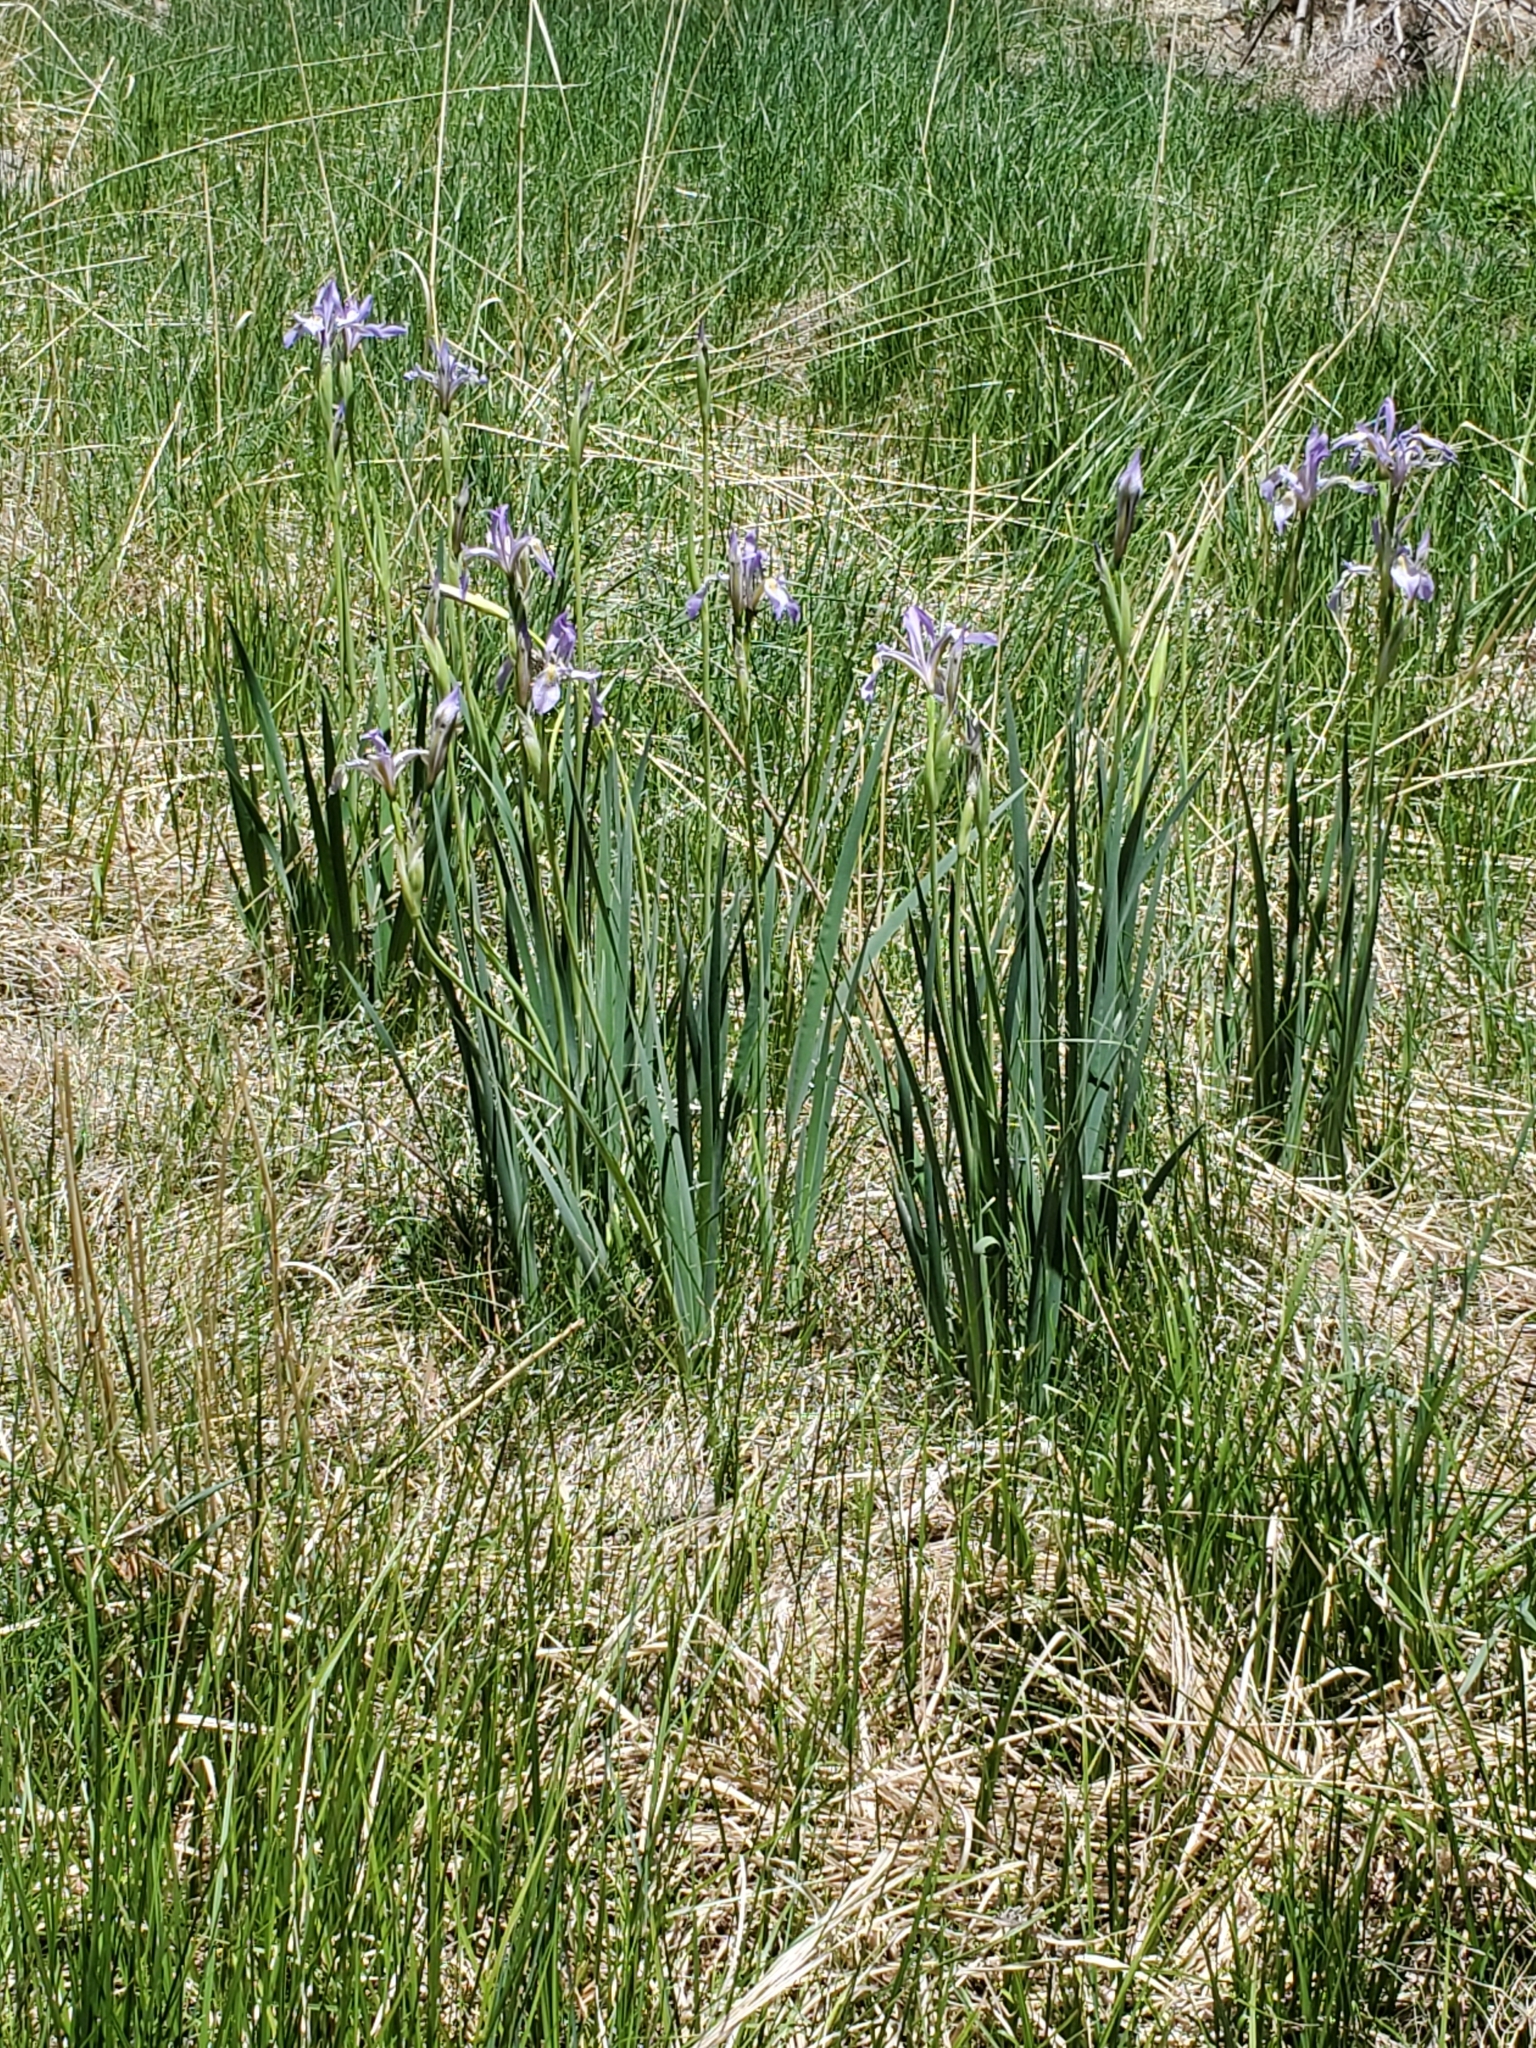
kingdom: Plantae
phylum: Tracheophyta
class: Liliopsida
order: Asparagales
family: Iridaceae
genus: Iris
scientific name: Iris missouriensis
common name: Rocky mountain iris
